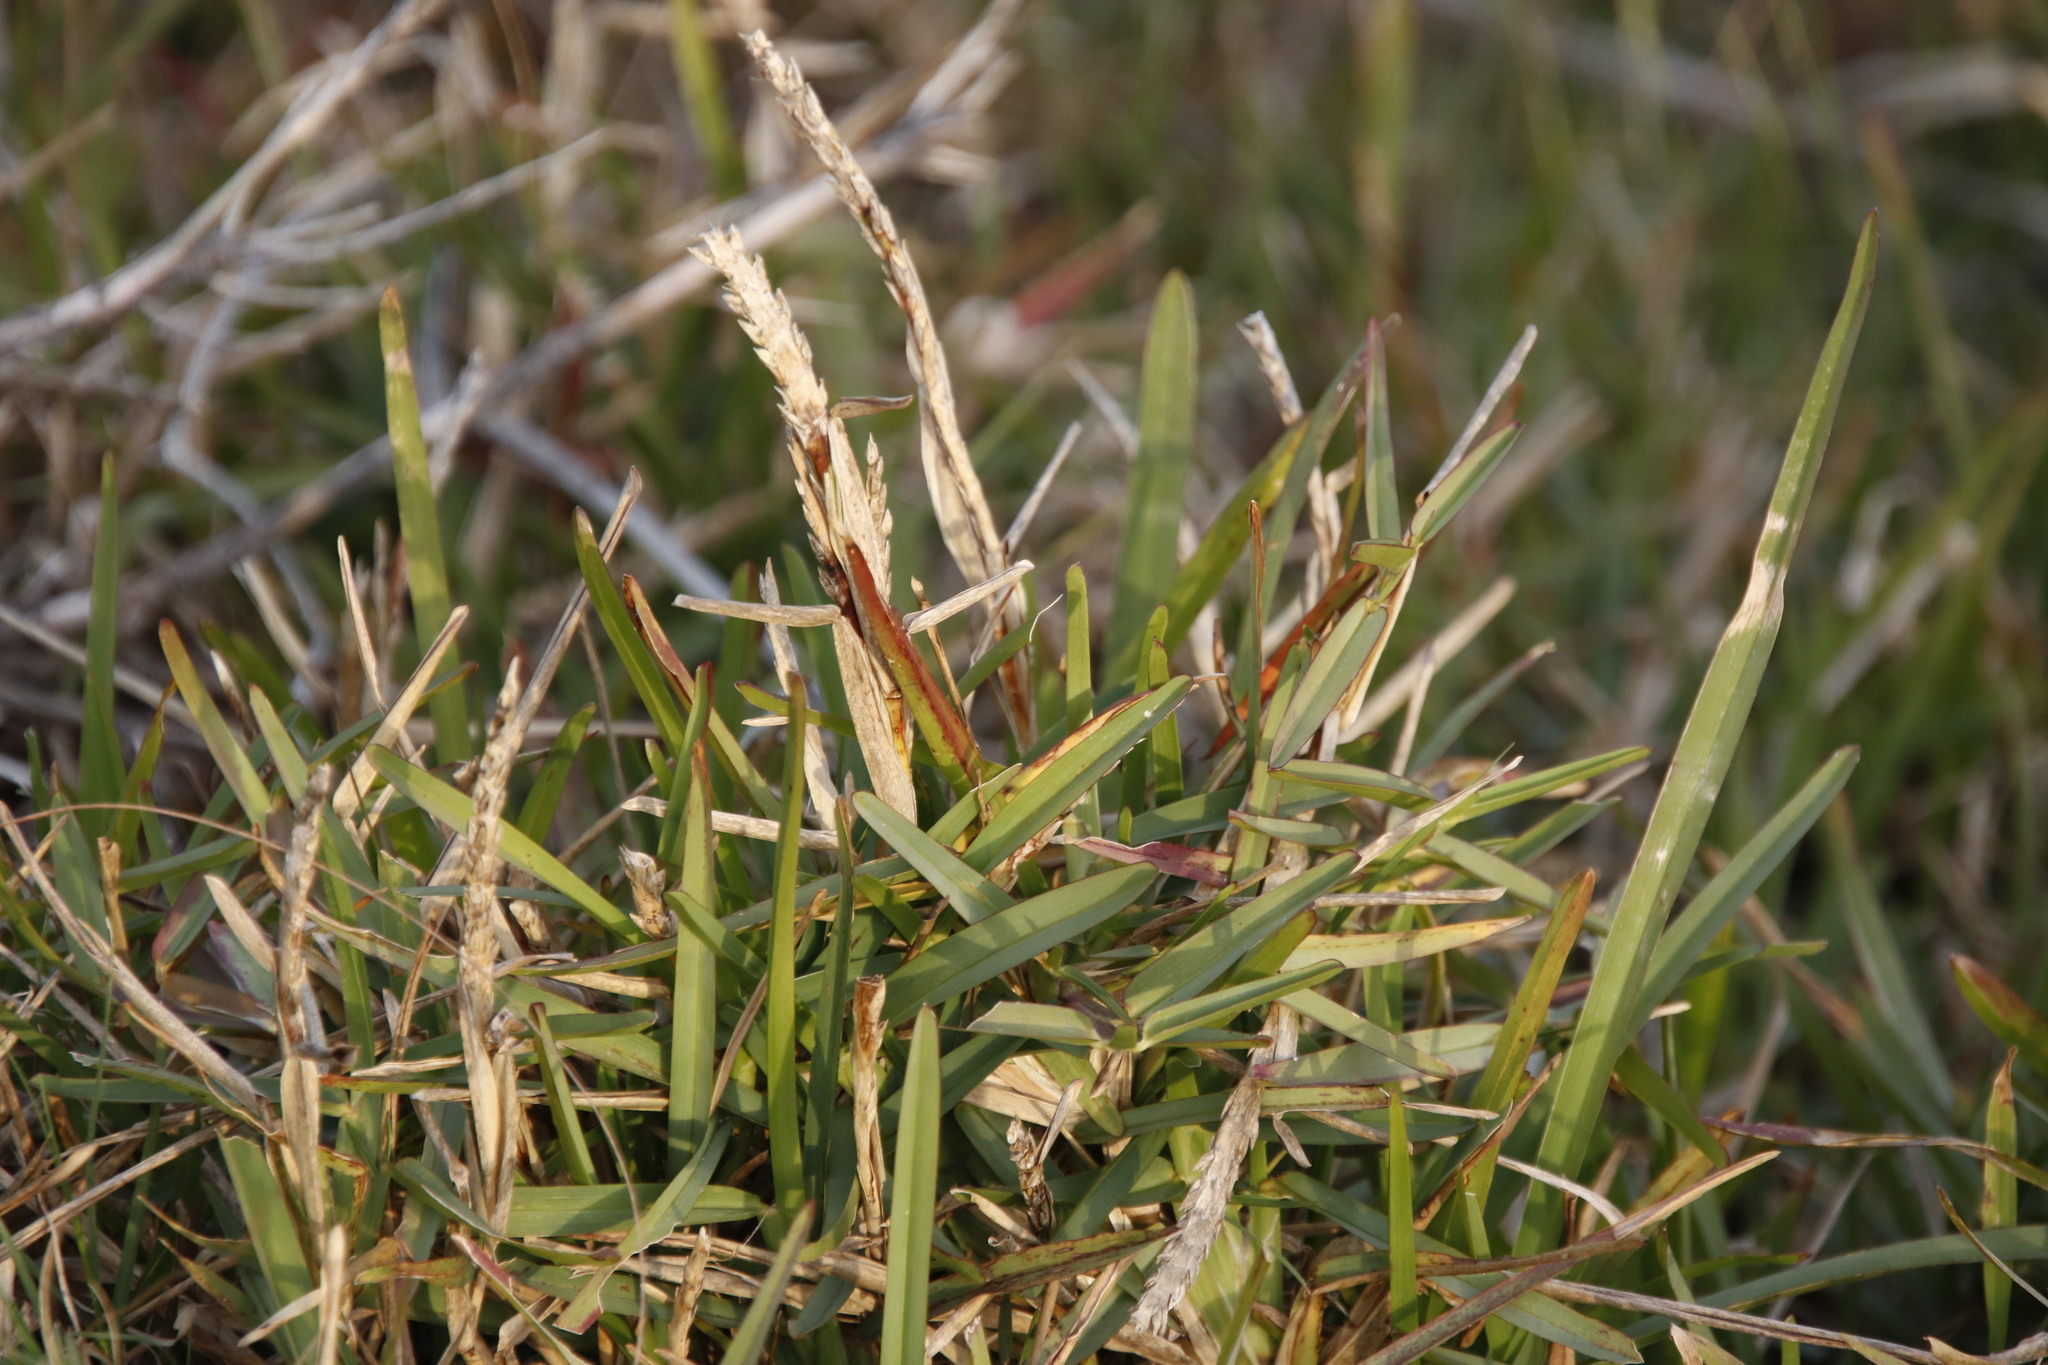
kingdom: Plantae
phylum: Tracheophyta
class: Liliopsida
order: Poales
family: Poaceae
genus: Stenotaphrum
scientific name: Stenotaphrum secundatum
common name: St. augustine grass
